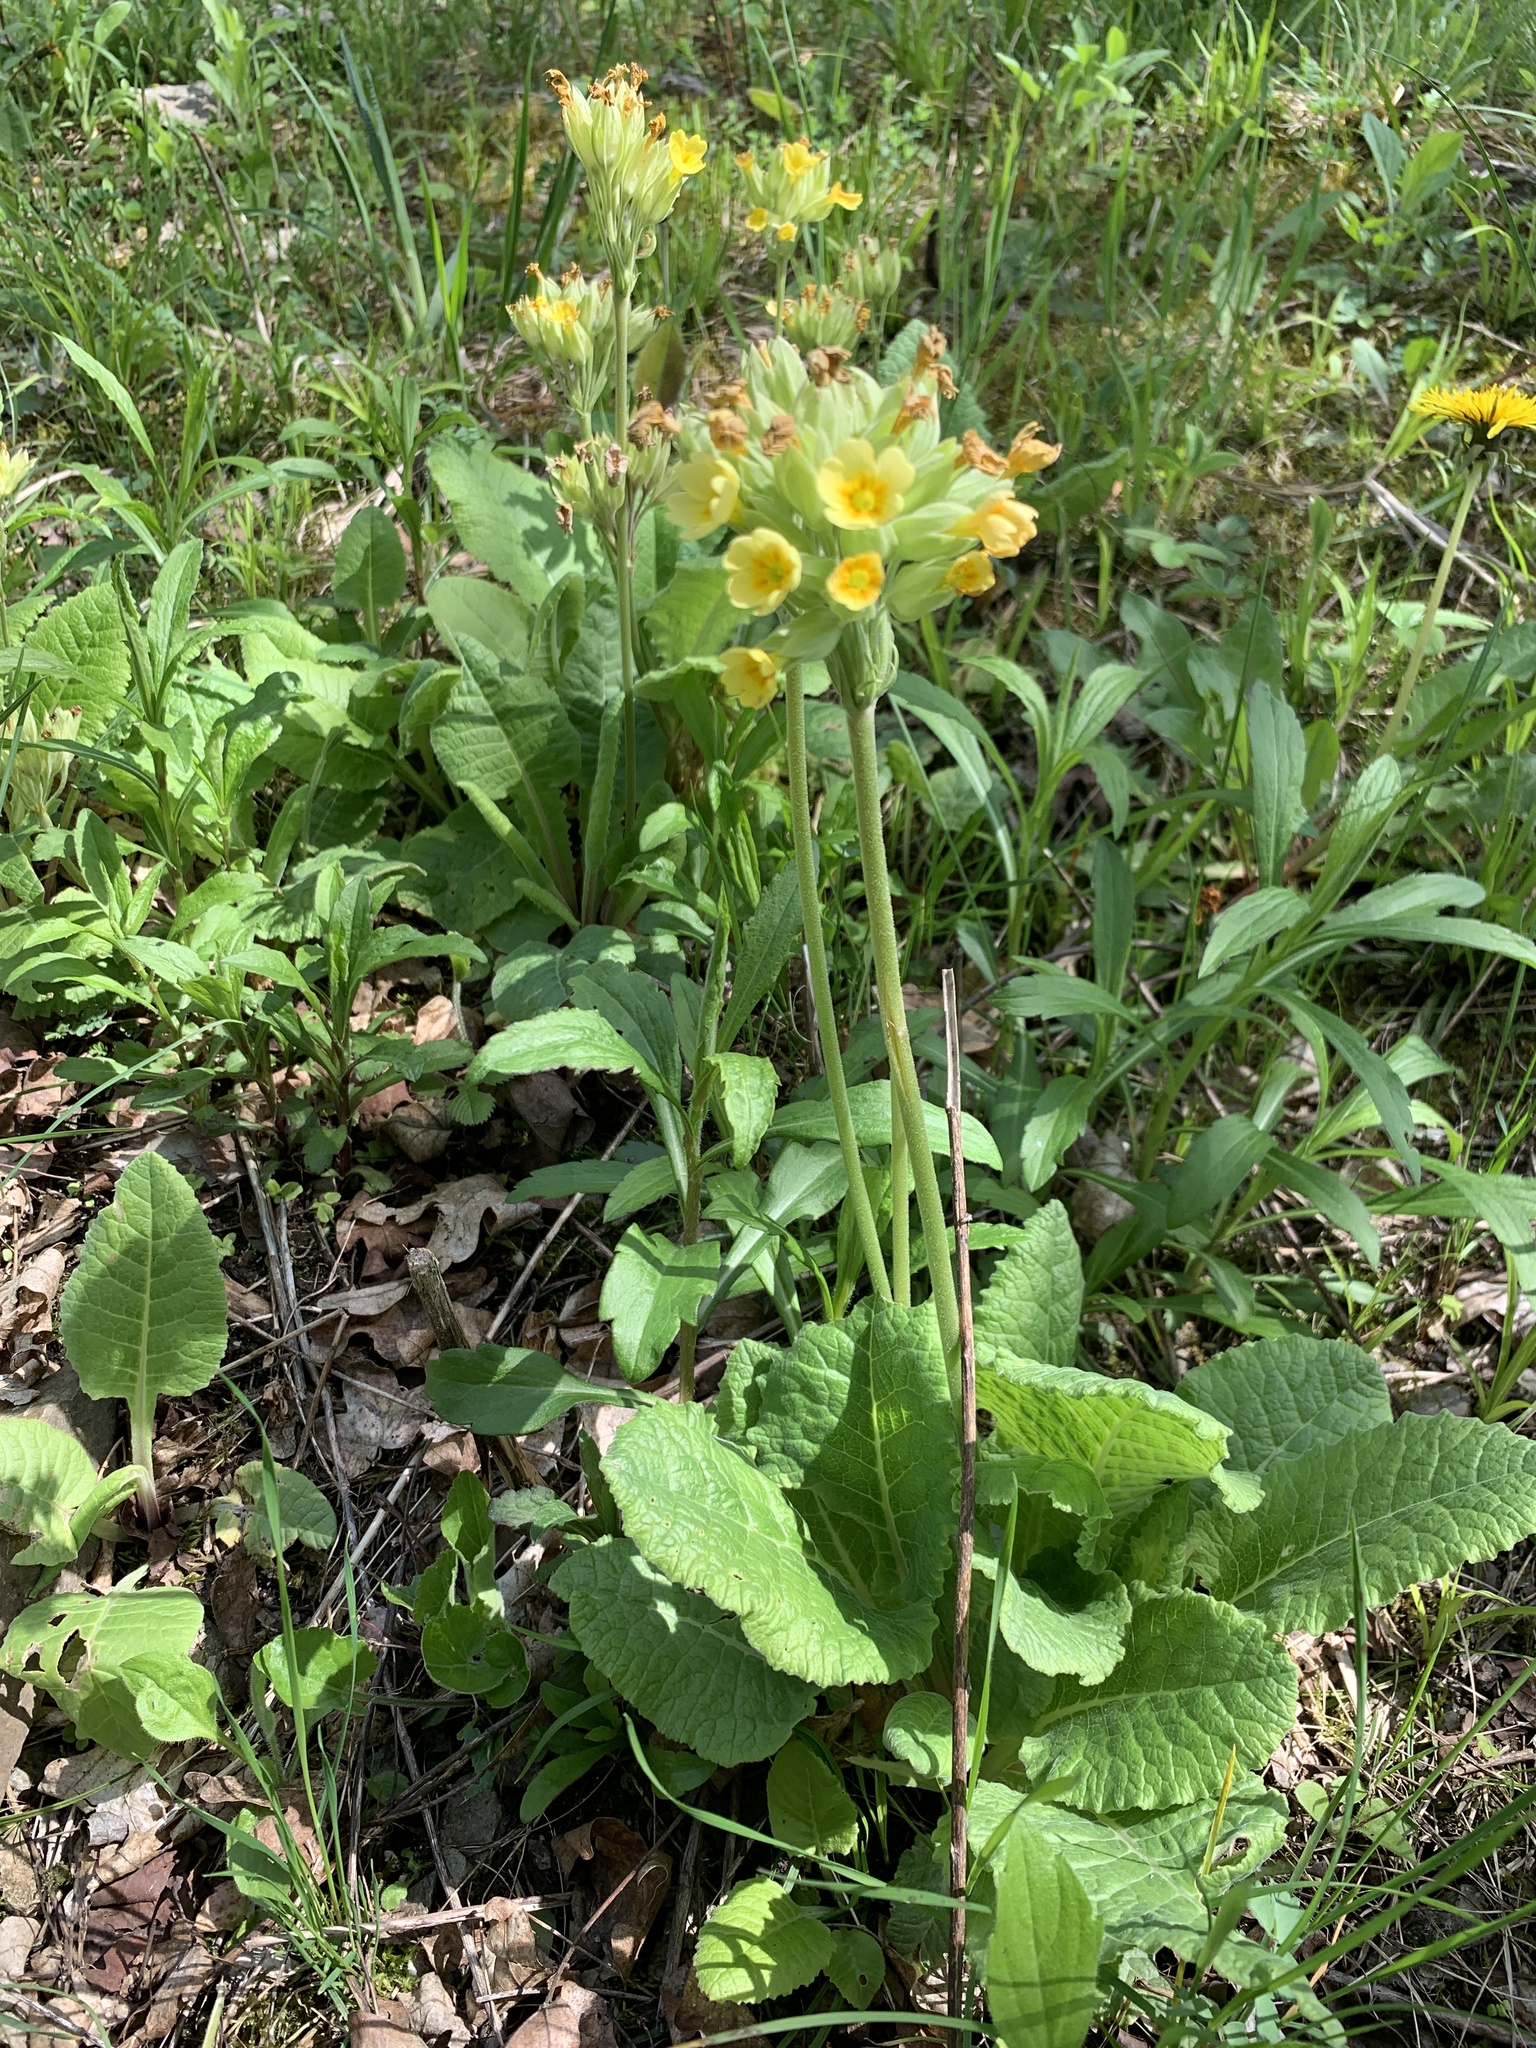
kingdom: Plantae
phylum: Tracheophyta
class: Magnoliopsida
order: Ericales
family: Primulaceae
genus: Primula
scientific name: Primula veris
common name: Cowslip
